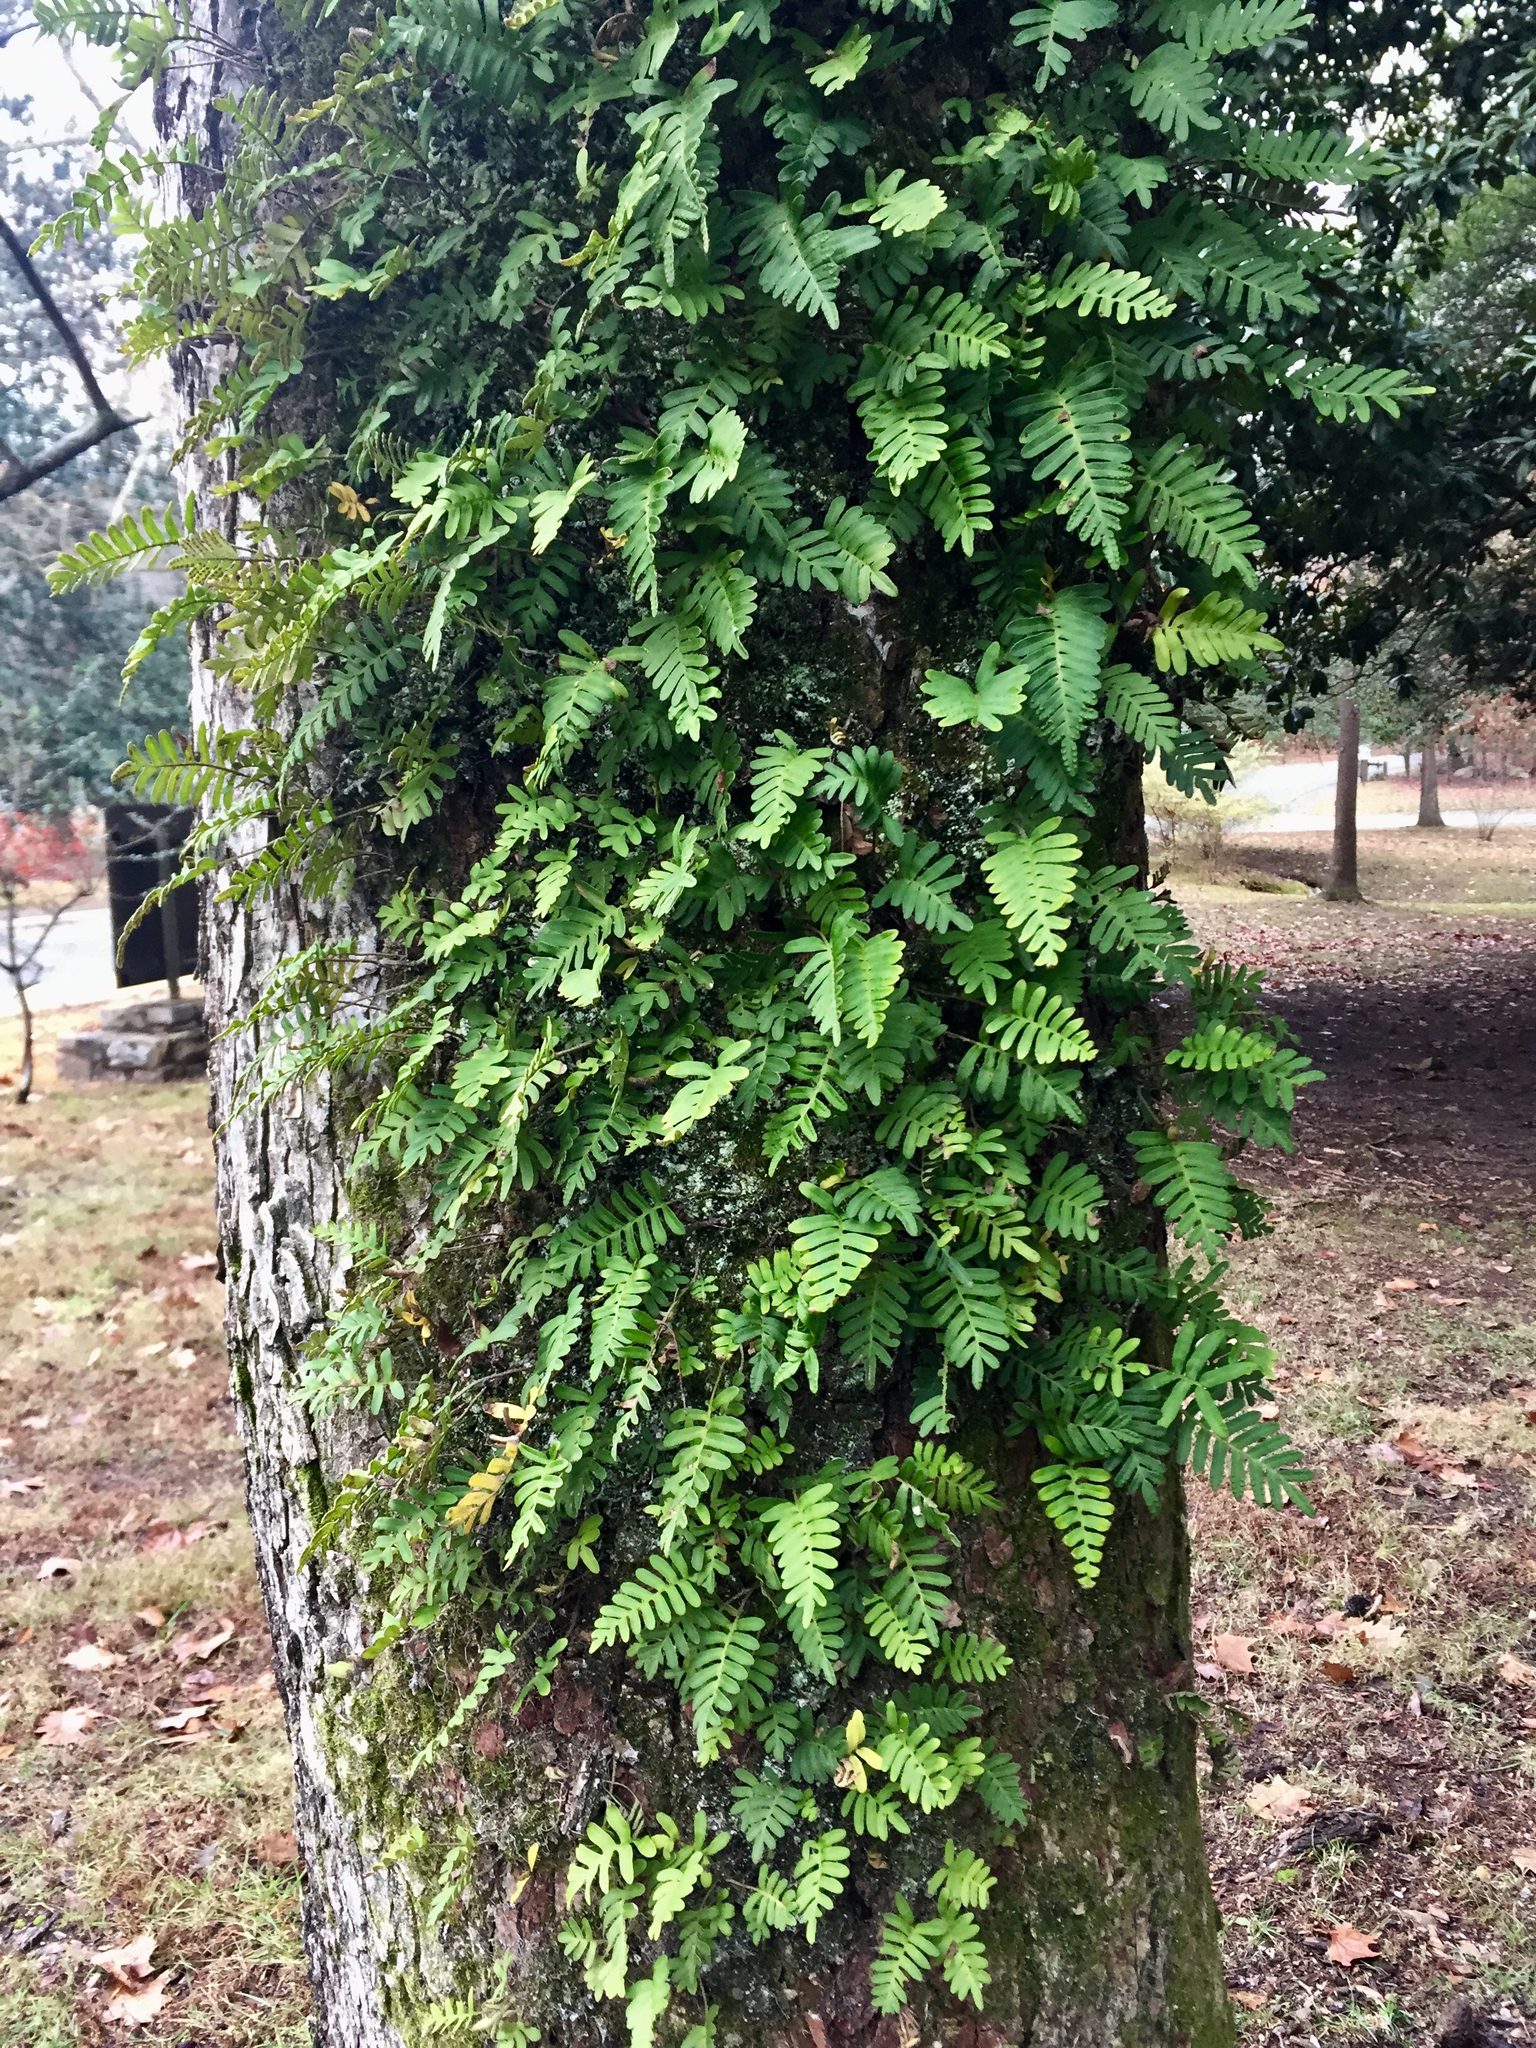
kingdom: Plantae
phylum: Tracheophyta
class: Polypodiopsida
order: Polypodiales
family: Polypodiaceae
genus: Pleopeltis
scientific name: Pleopeltis michauxiana
